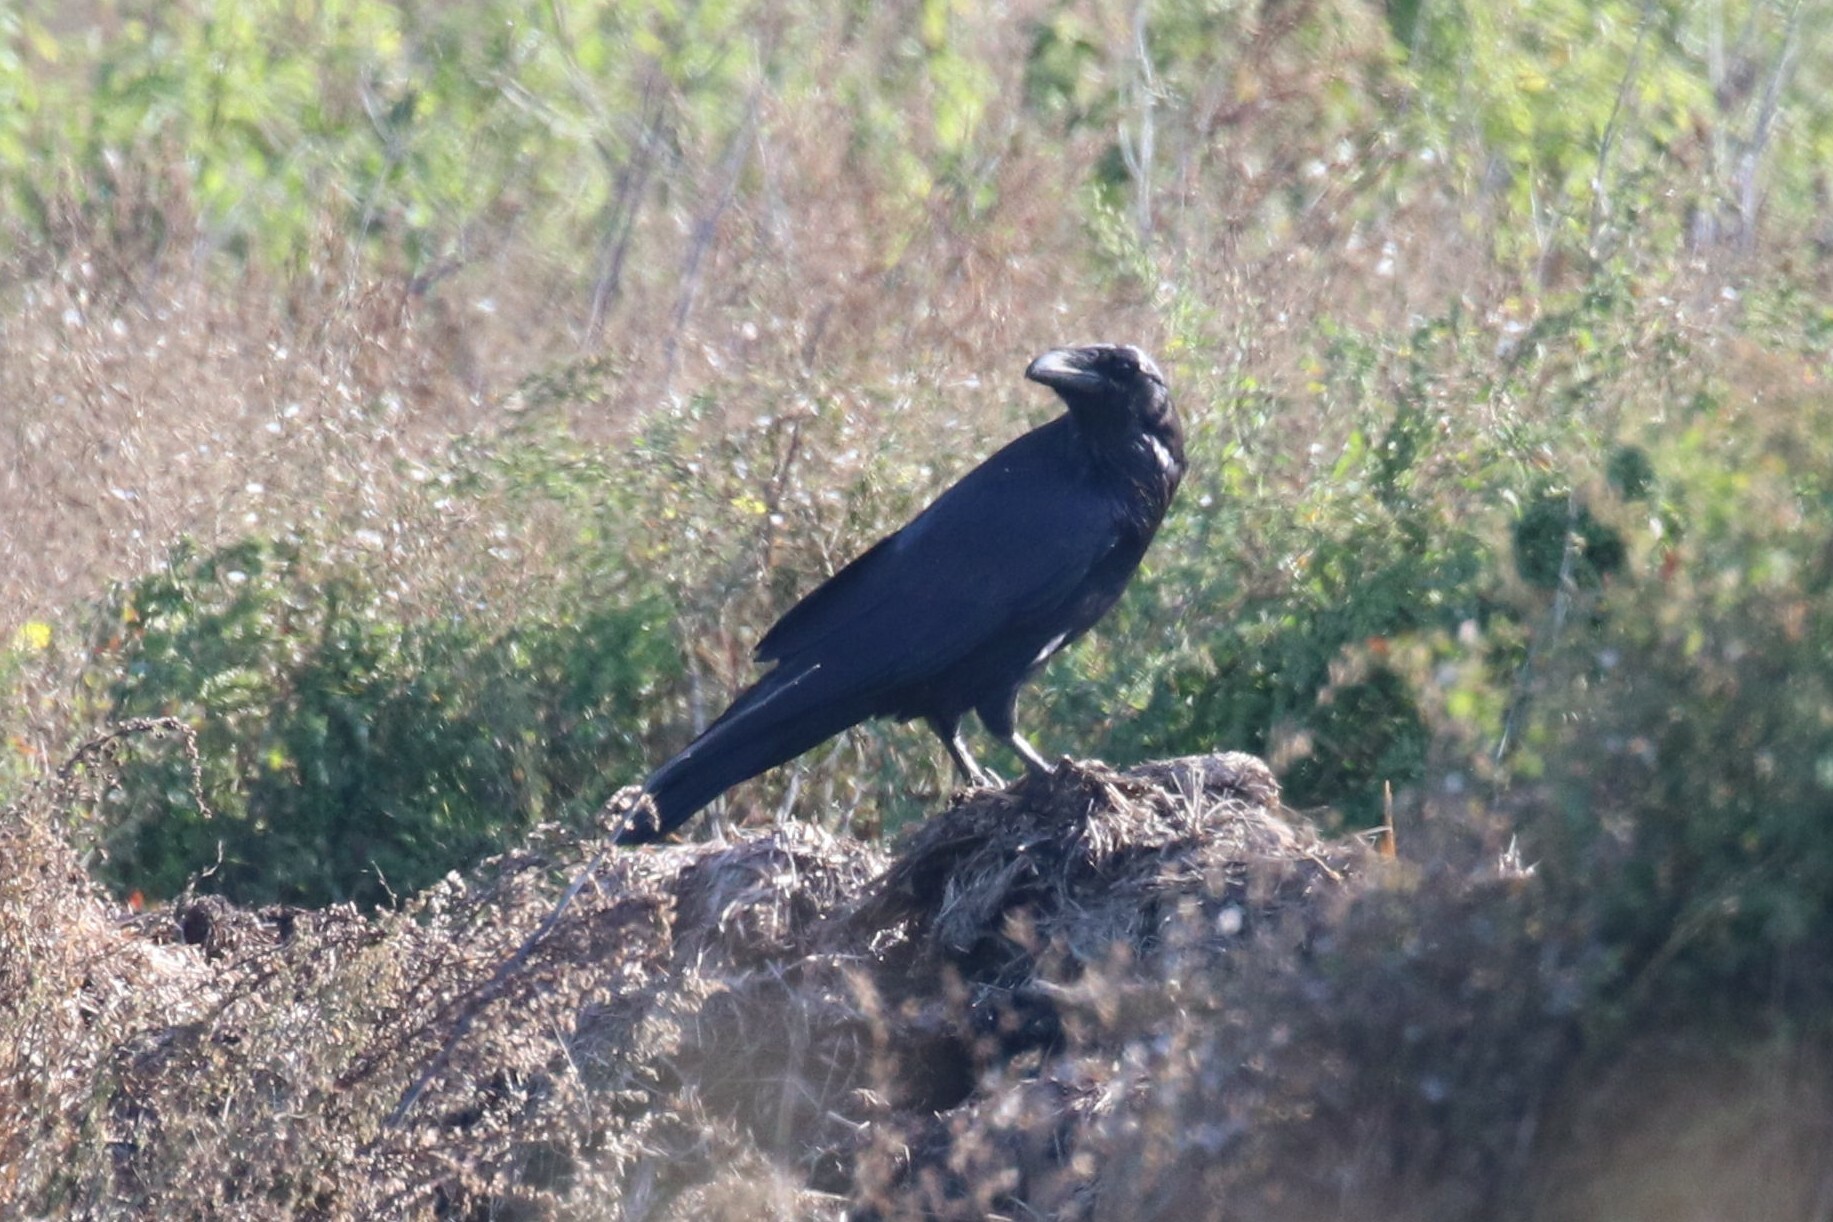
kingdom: Animalia
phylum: Chordata
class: Aves
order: Passeriformes
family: Corvidae
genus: Corvus
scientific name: Corvus corax
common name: Common raven
